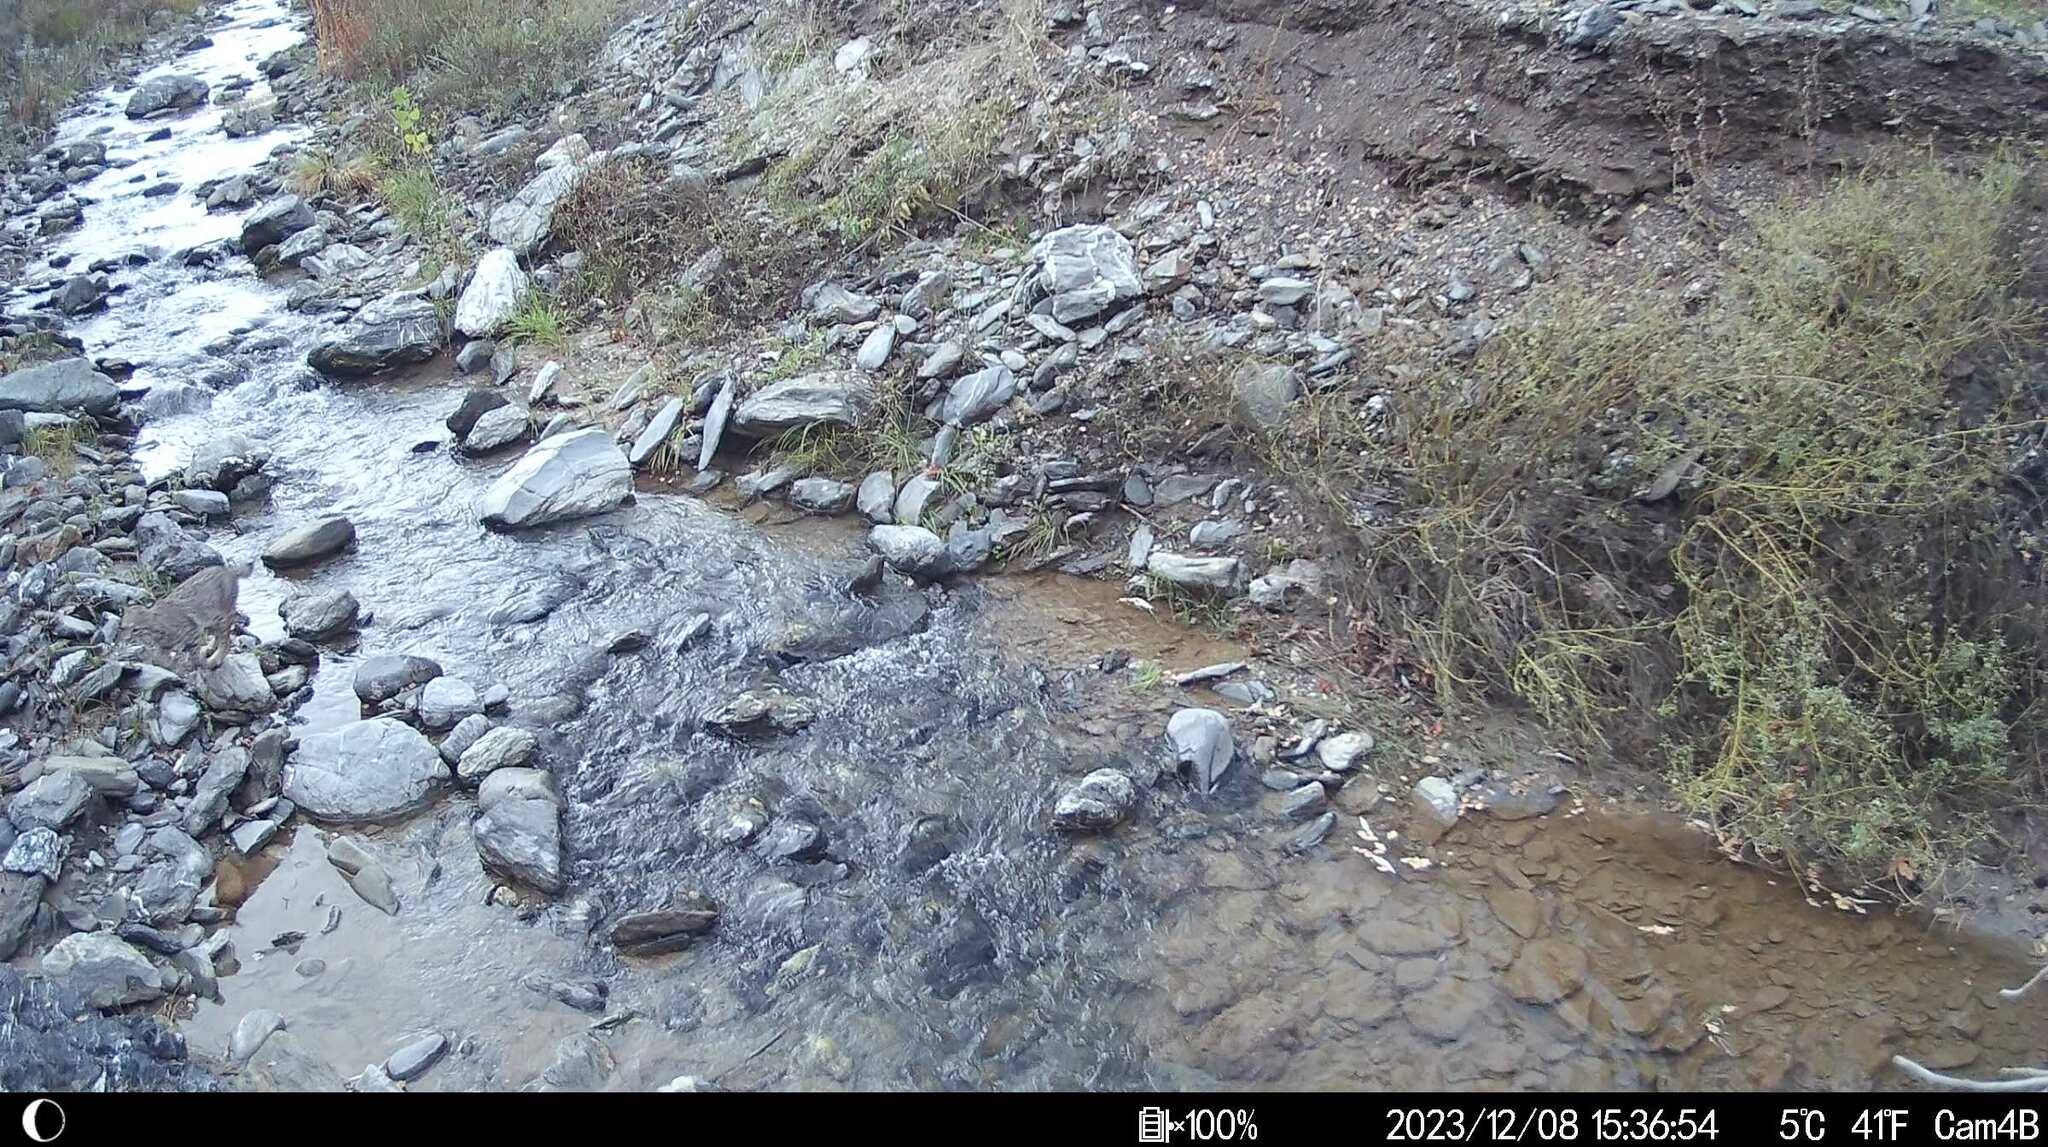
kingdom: Animalia
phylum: Chordata
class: Mammalia
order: Carnivora
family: Felidae
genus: Lynx
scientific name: Lynx rufus
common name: Bobcat
